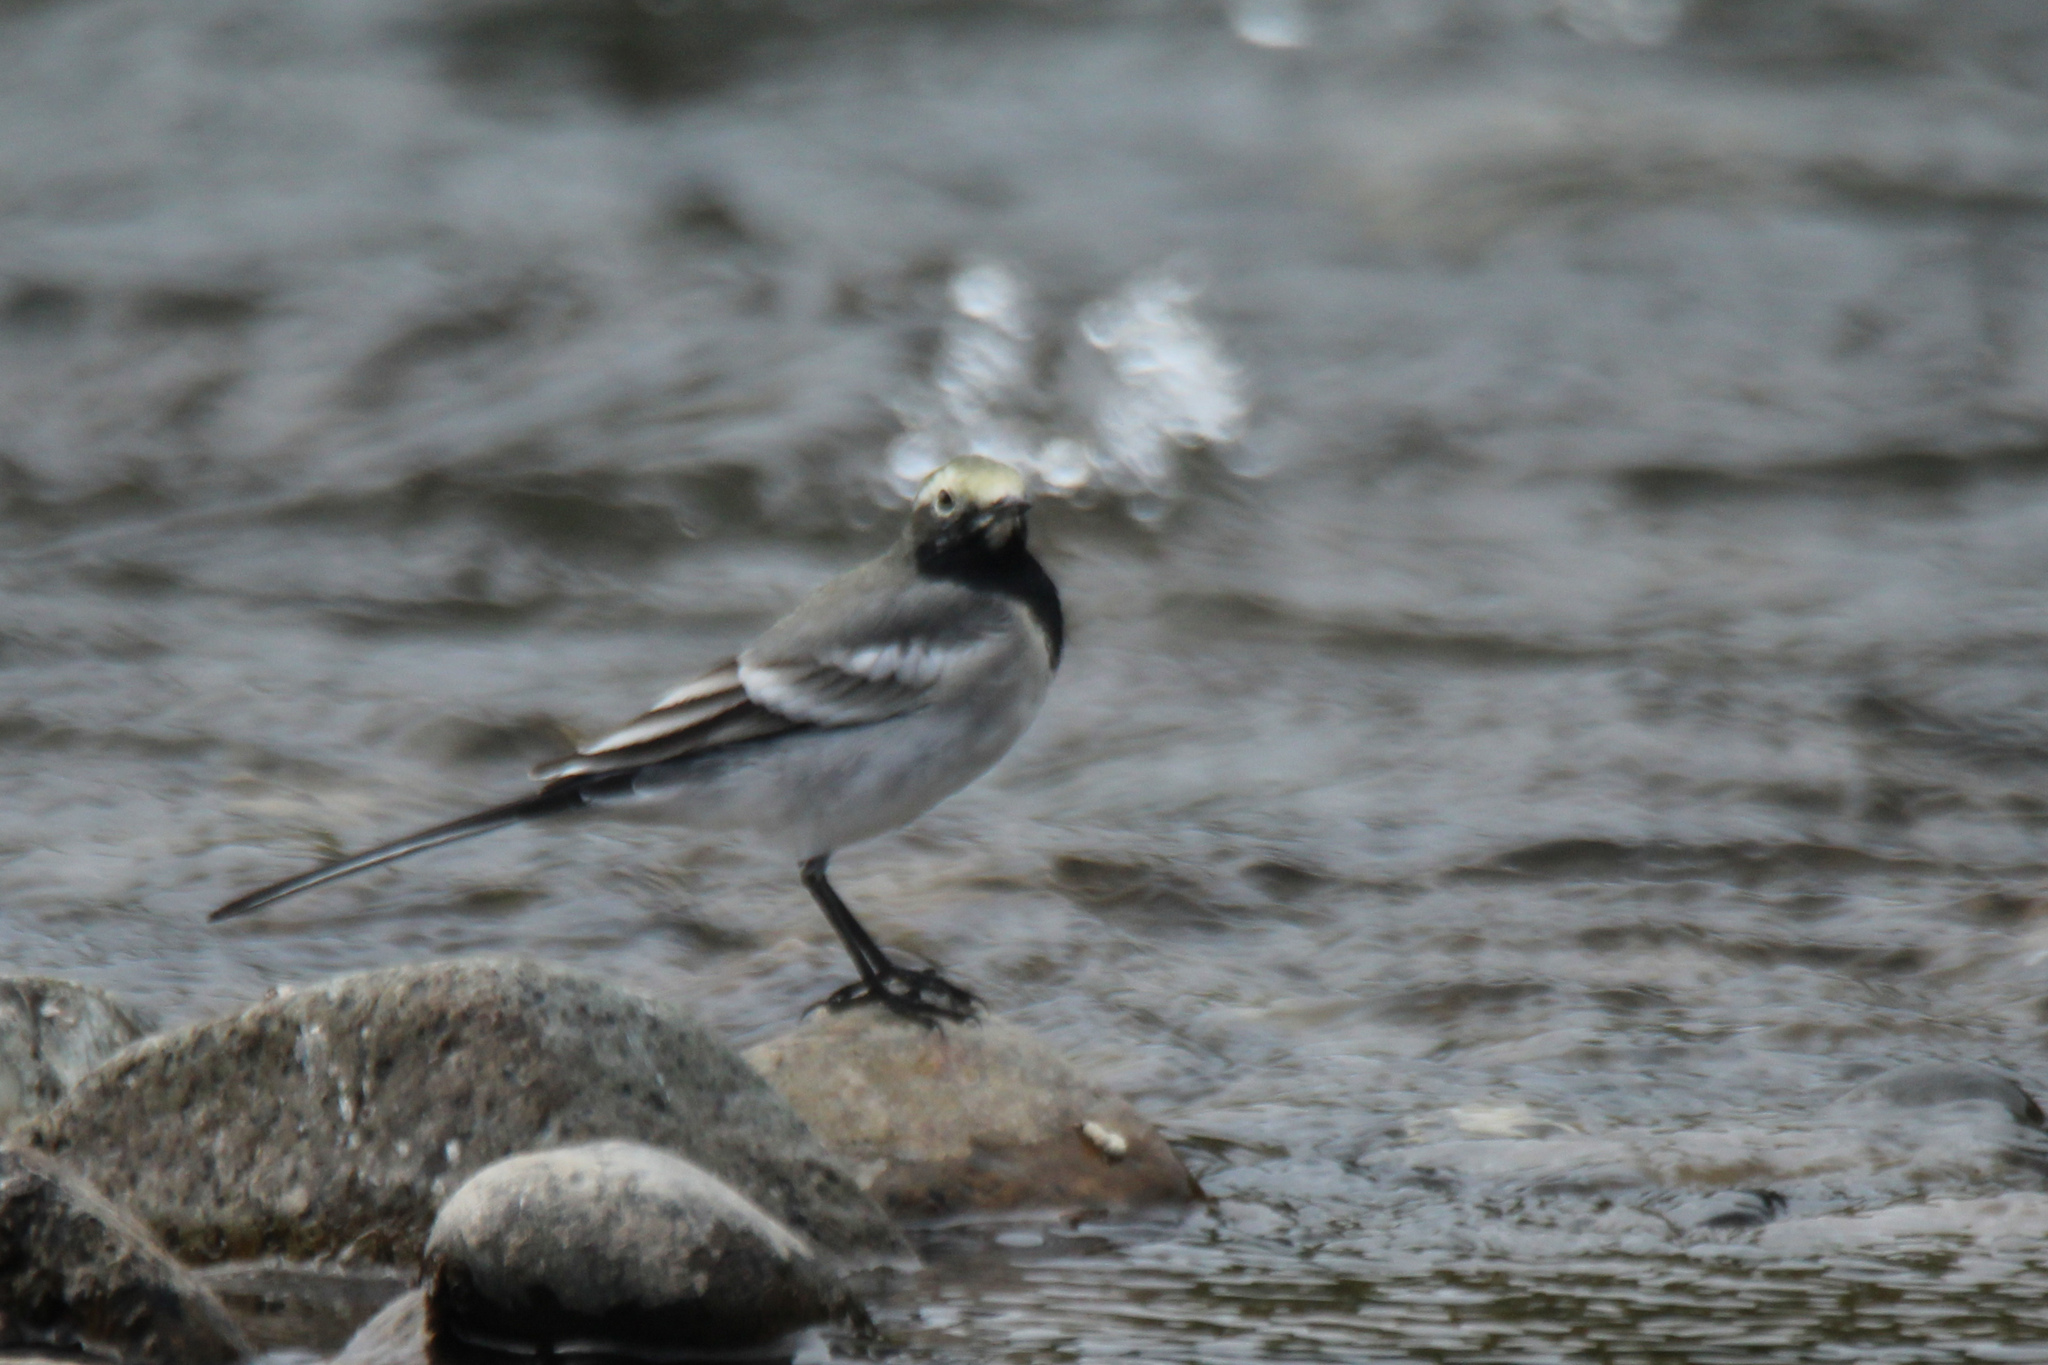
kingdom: Animalia
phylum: Chordata
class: Aves
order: Passeriformes
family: Motacillidae
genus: Motacilla
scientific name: Motacilla alba
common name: White wagtail
